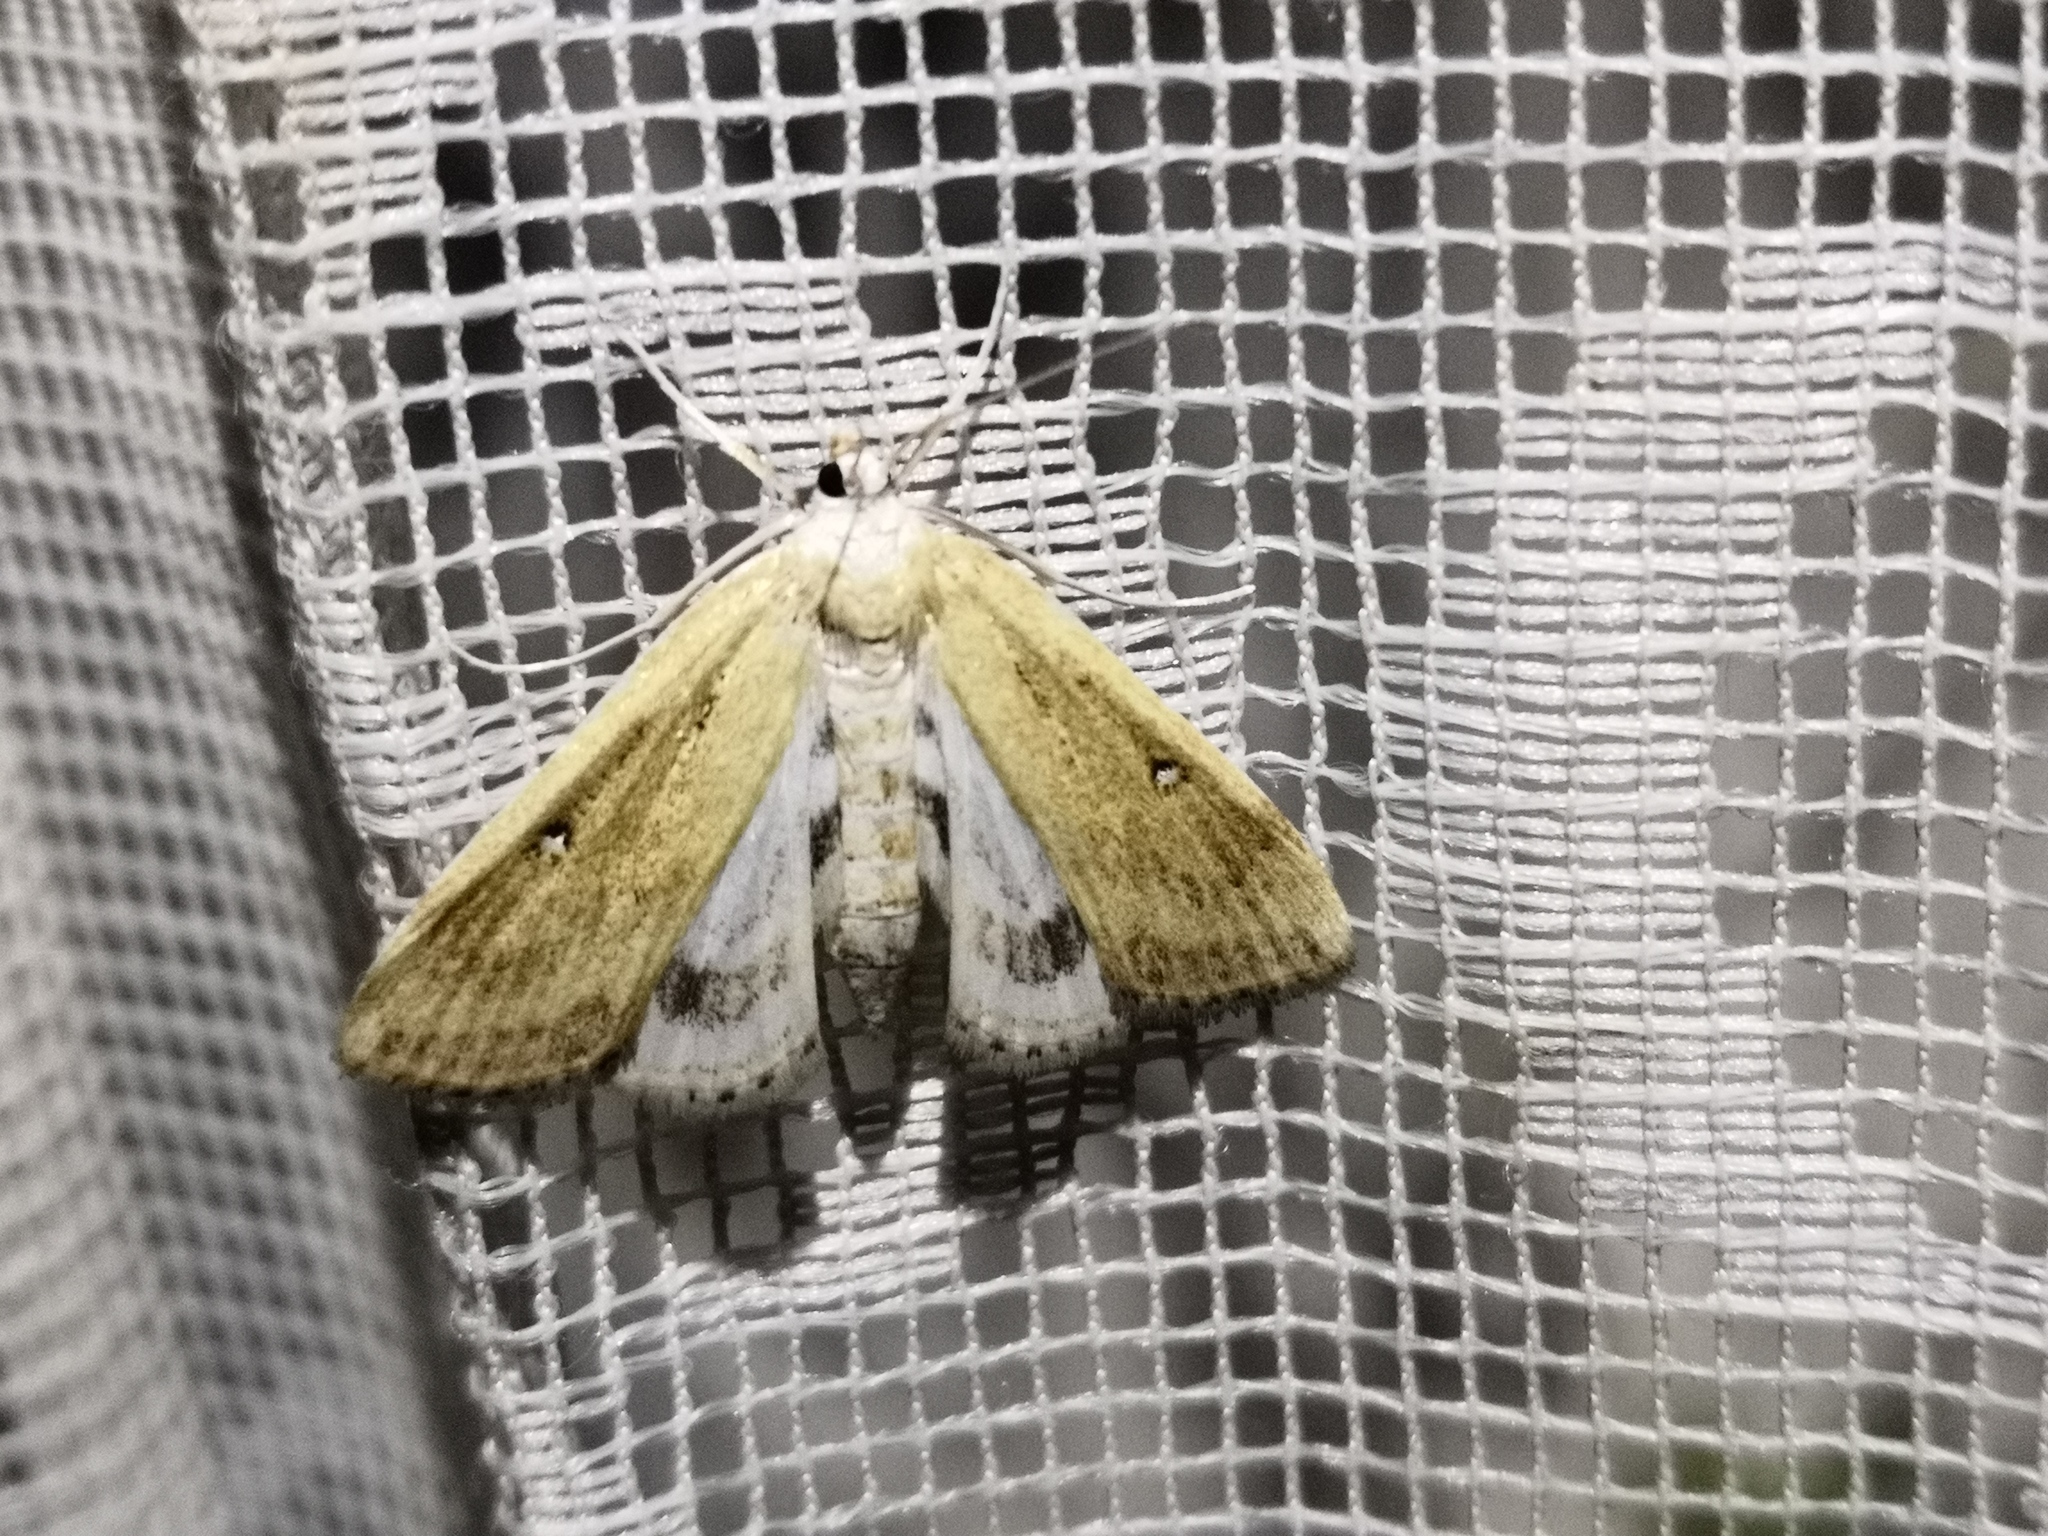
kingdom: Animalia
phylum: Arthropoda
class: Insecta
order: Lepidoptera
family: Crambidae
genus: Parapoynx
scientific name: Parapoynx stratiotata
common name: Ringed china-mark
